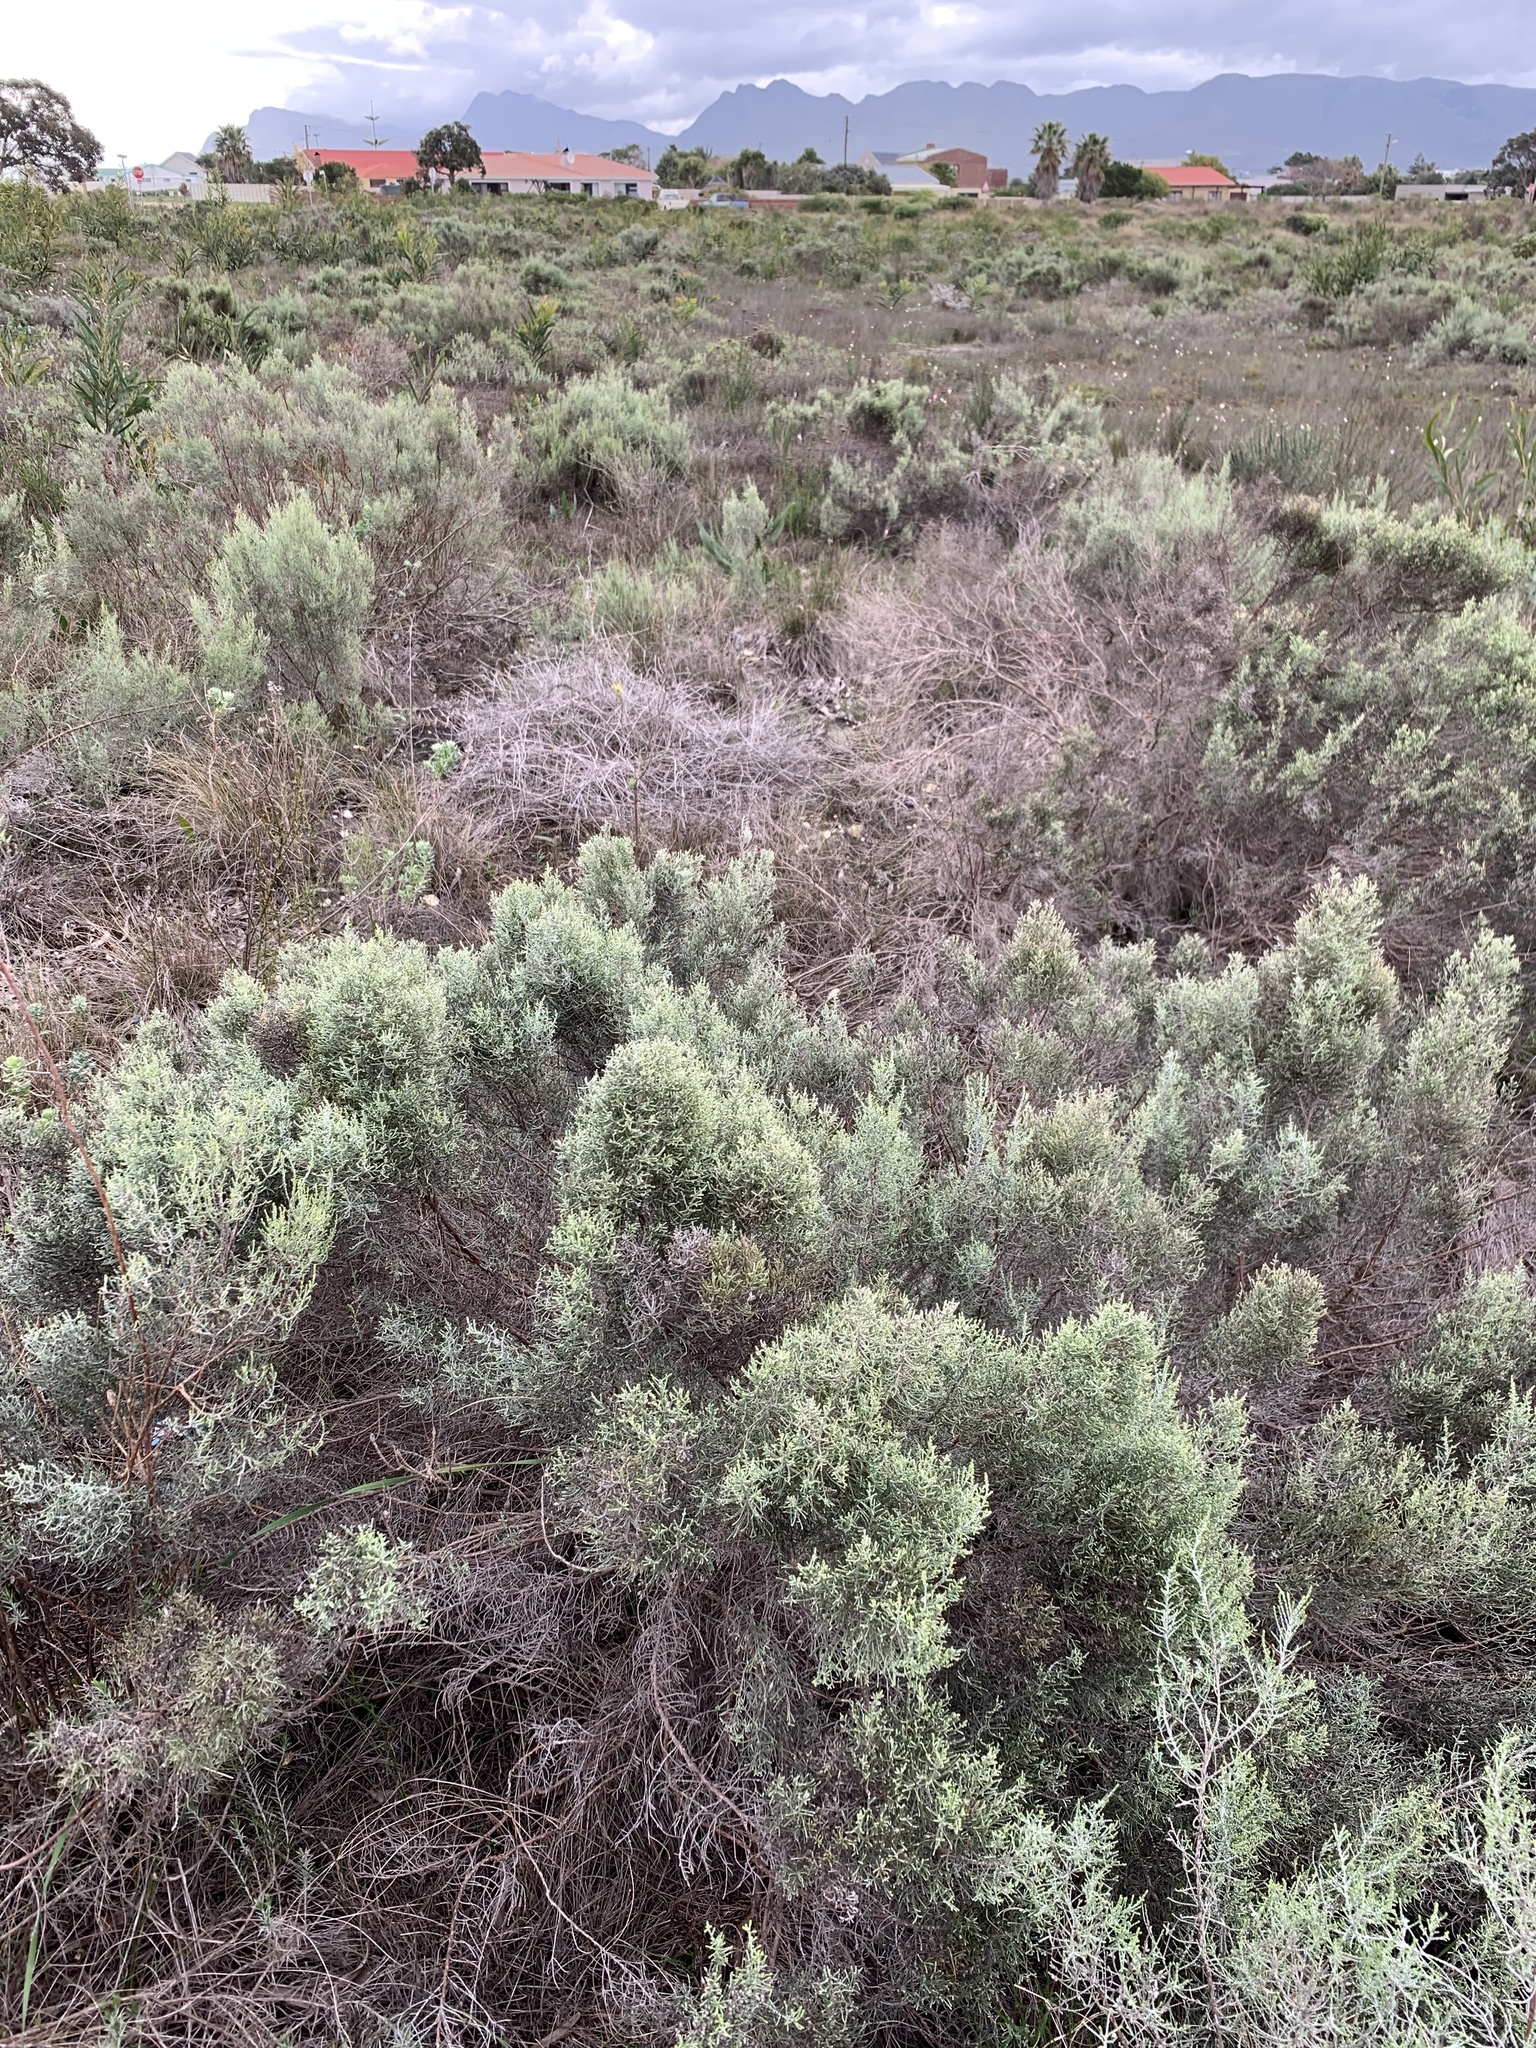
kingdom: Plantae
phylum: Tracheophyta
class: Magnoliopsida
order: Asterales
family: Asteraceae
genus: Dicerothamnus
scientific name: Dicerothamnus rhinocerotis
